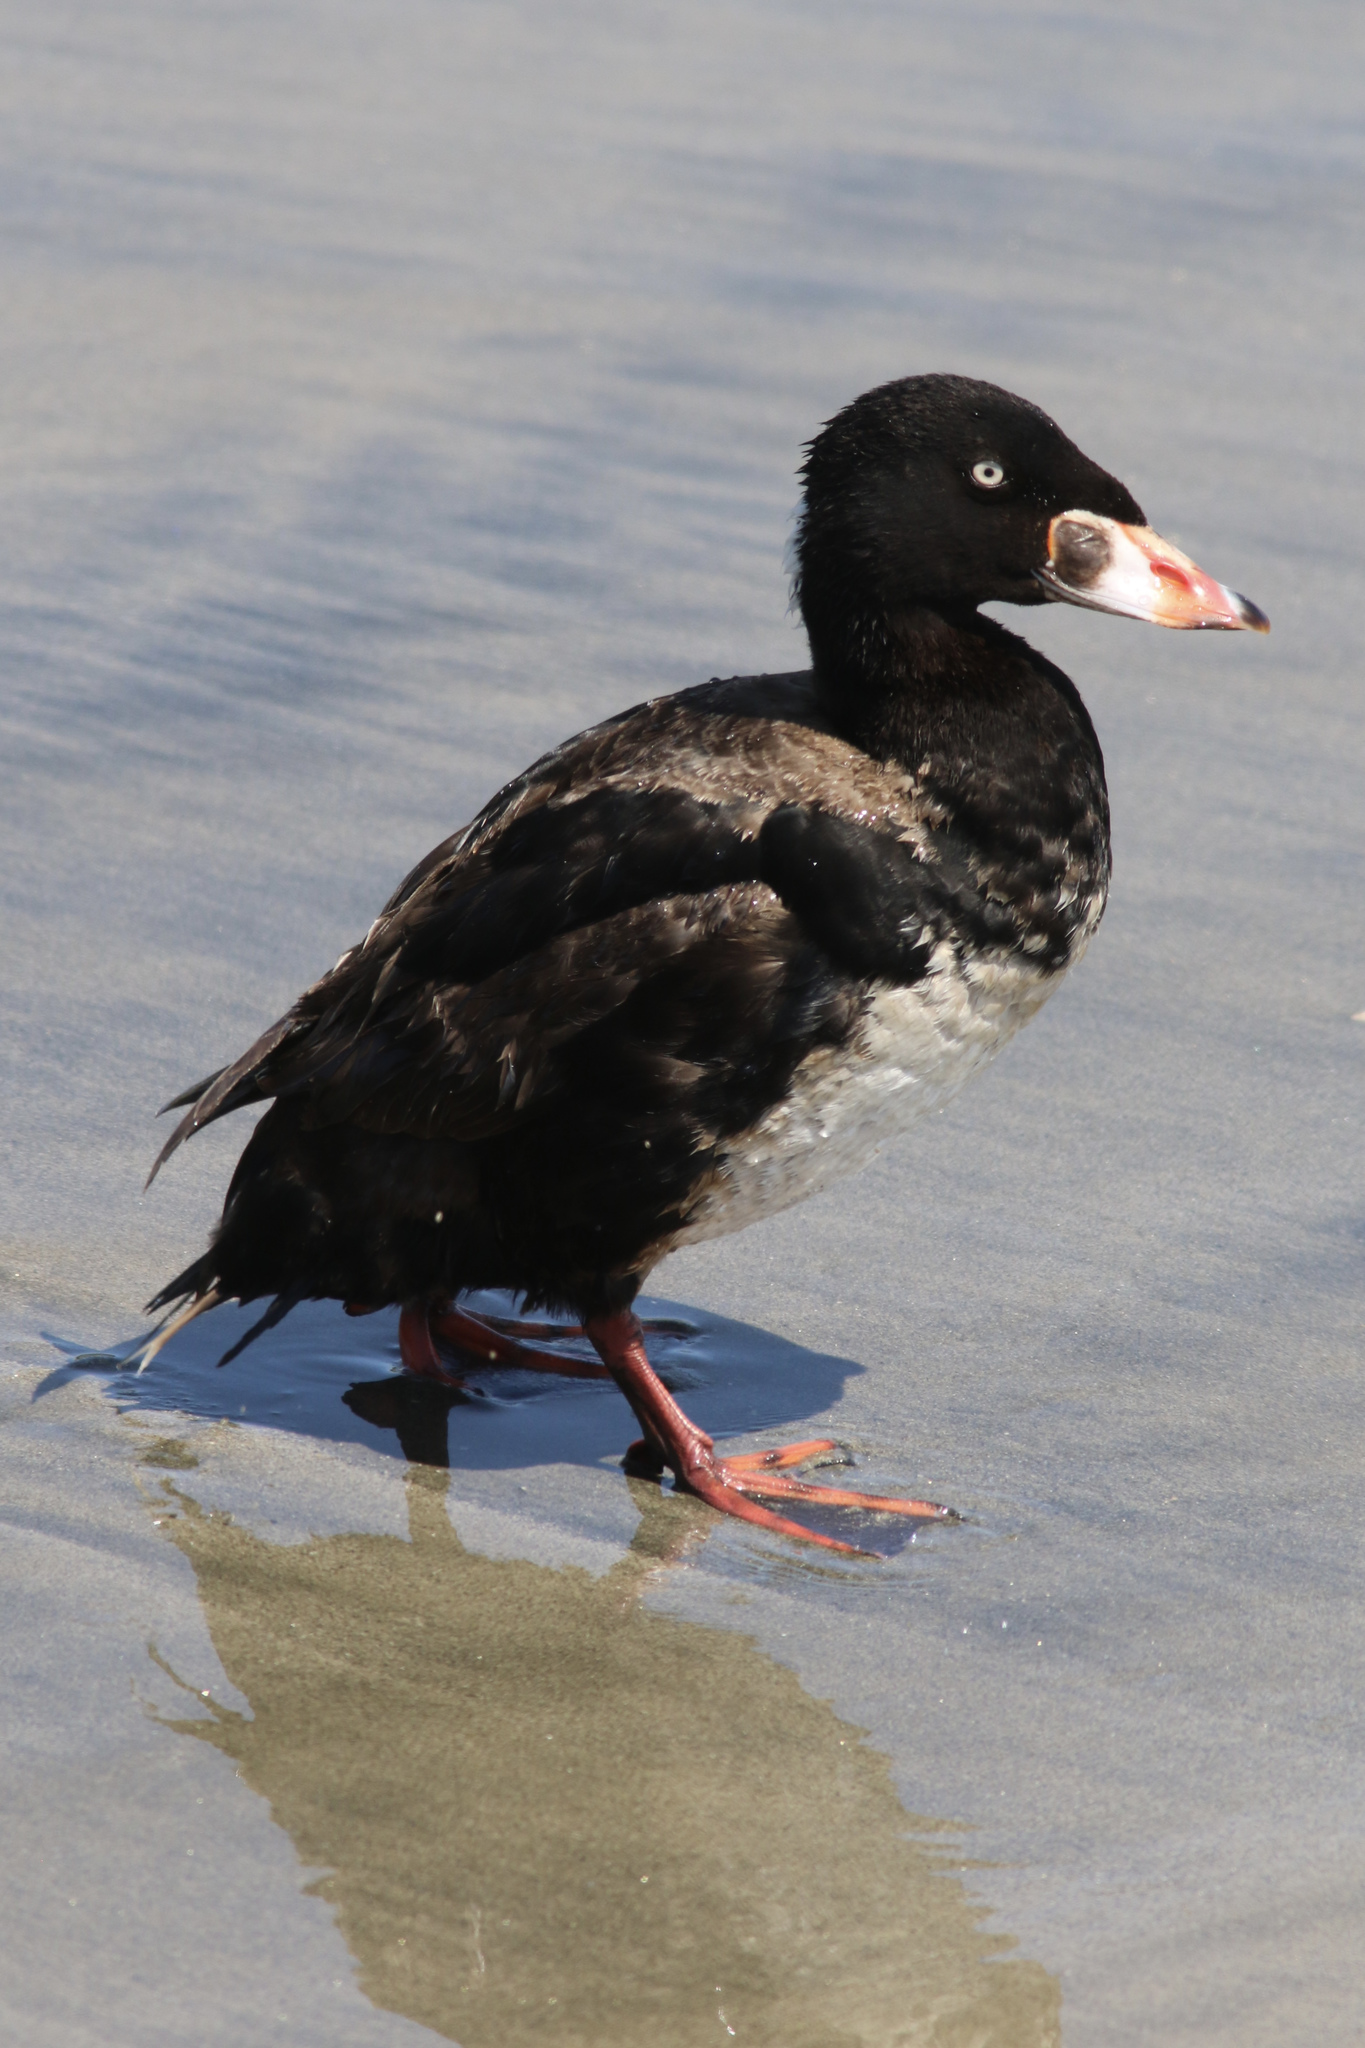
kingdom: Animalia
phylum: Chordata
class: Aves
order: Anseriformes
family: Anatidae
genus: Melanitta
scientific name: Melanitta perspicillata
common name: Surf scoter
